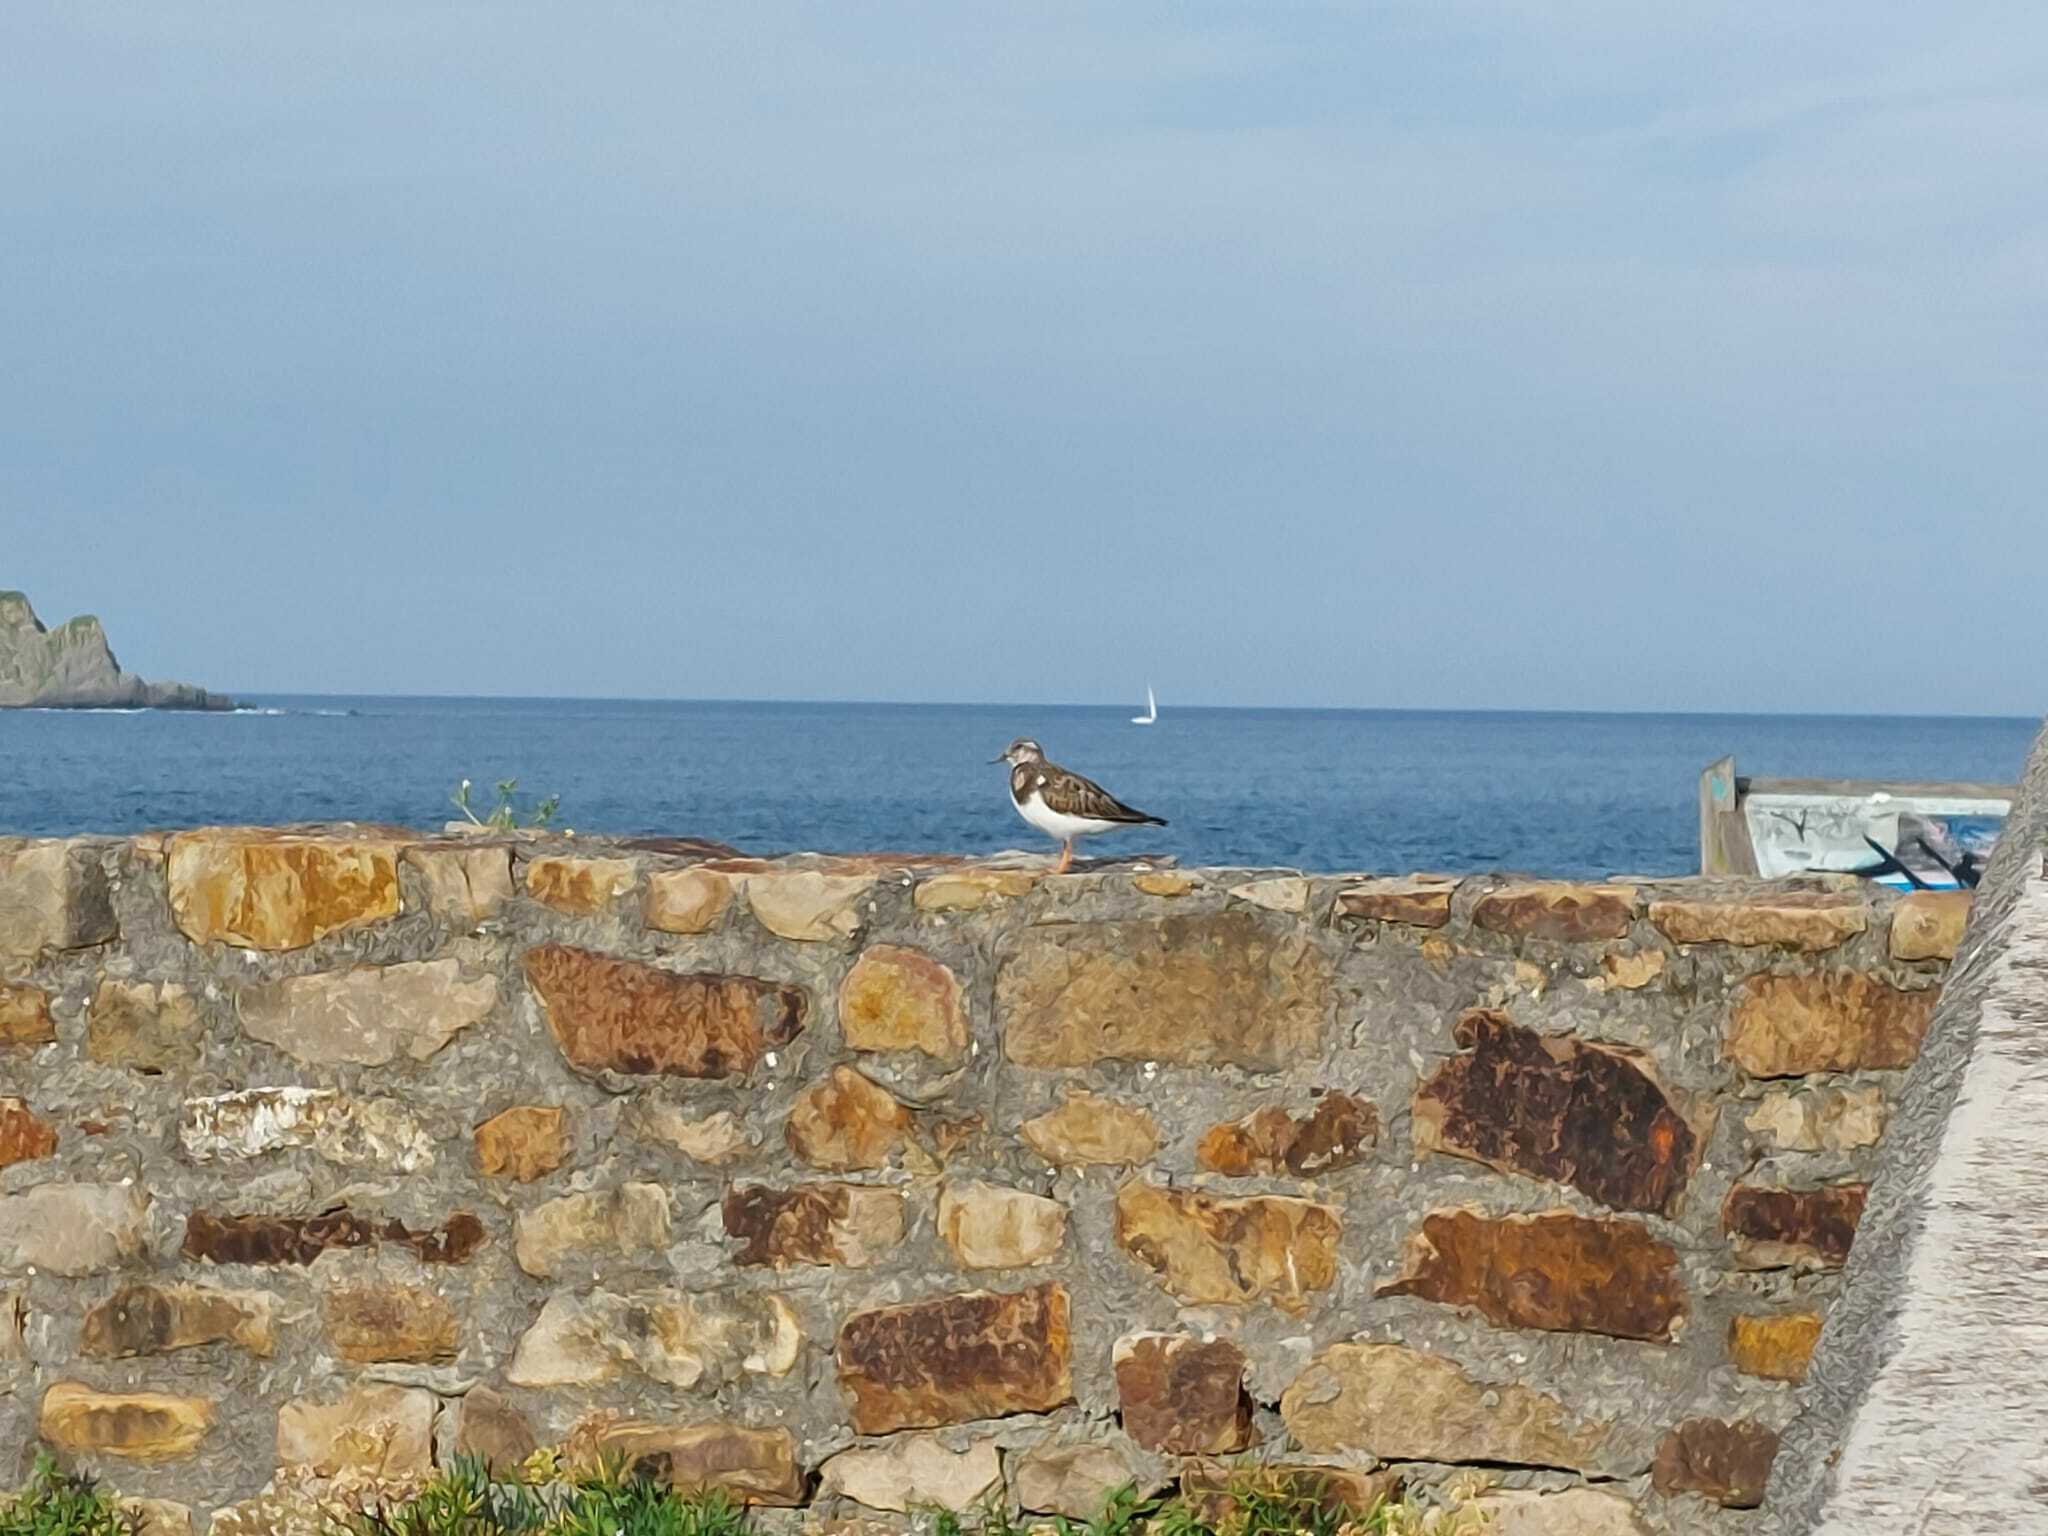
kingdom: Animalia
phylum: Chordata
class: Aves
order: Charadriiformes
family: Scolopacidae
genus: Arenaria
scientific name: Arenaria interpres
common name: Ruddy turnstone
